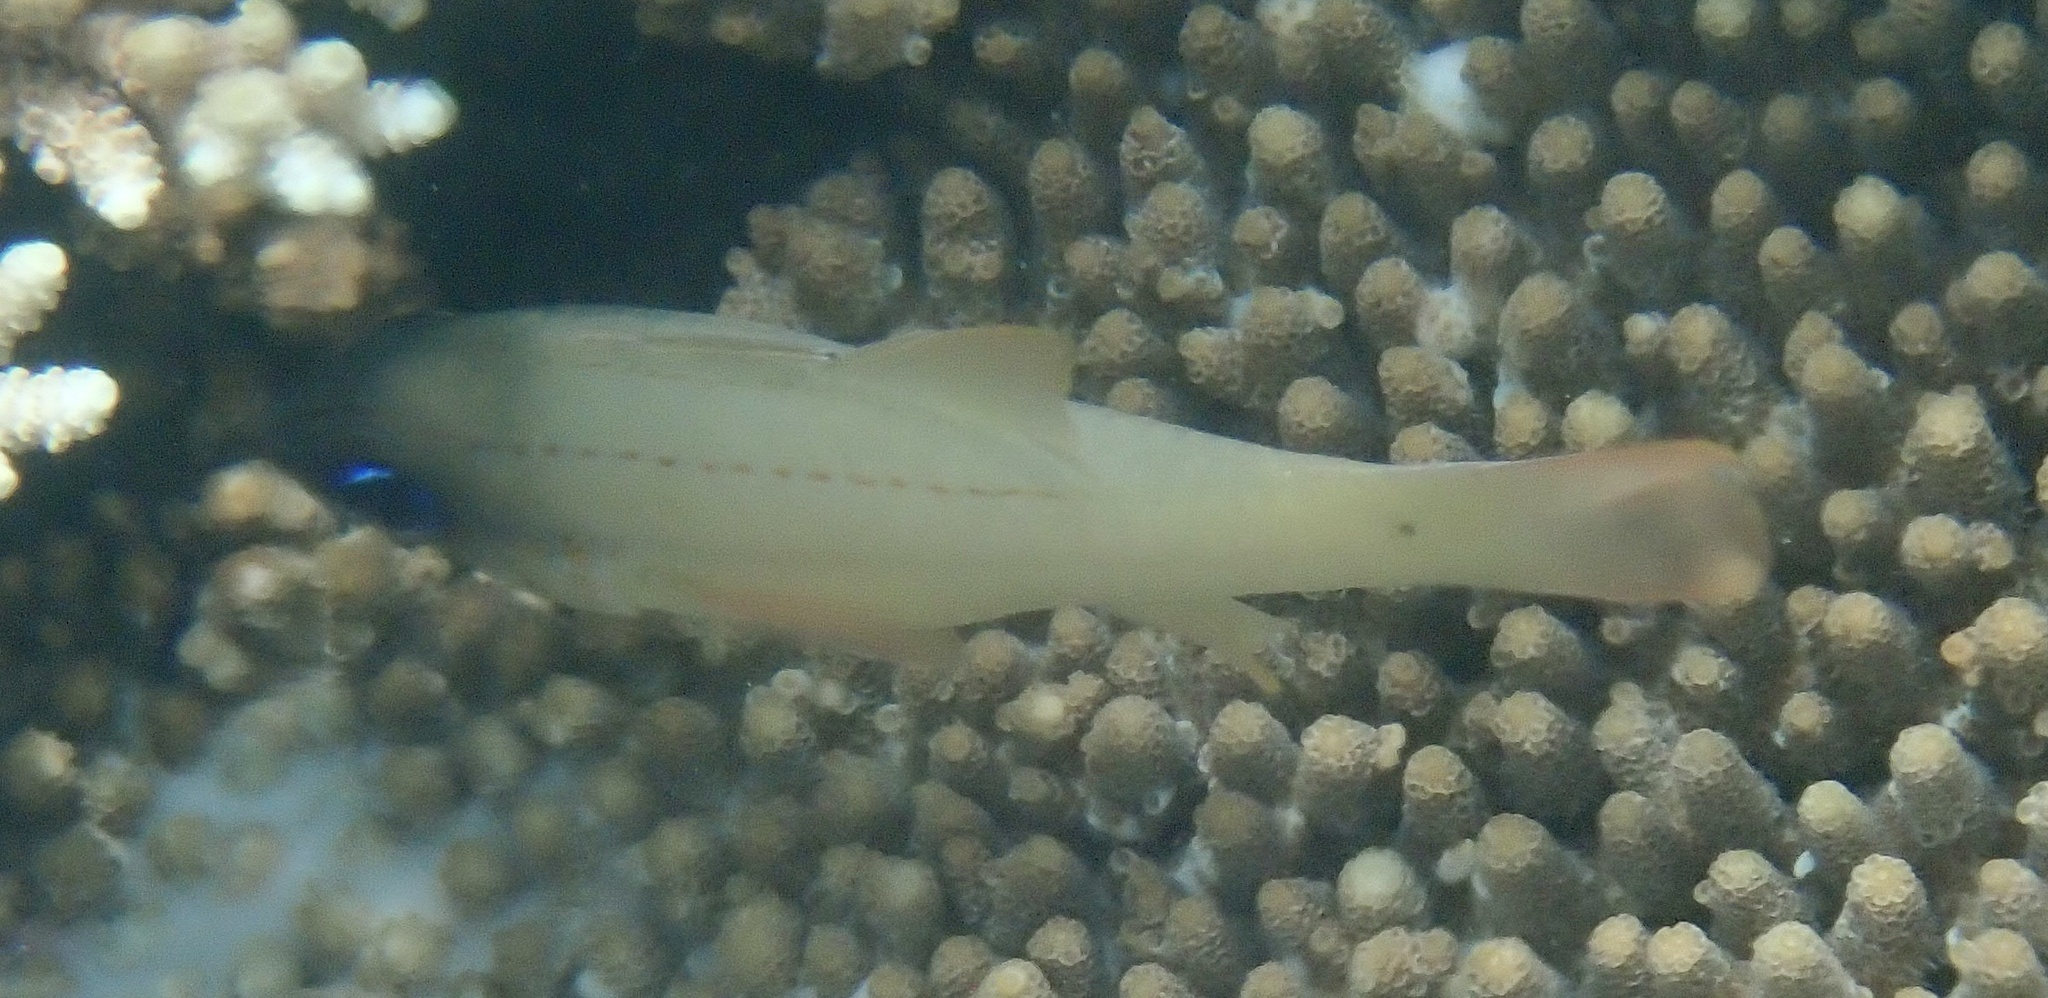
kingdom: Animalia
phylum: Chordata
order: Perciformes
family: Apogonidae
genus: Ostorhinchus
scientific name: Ostorhinchus sealei
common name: Seale's cardinalfish
